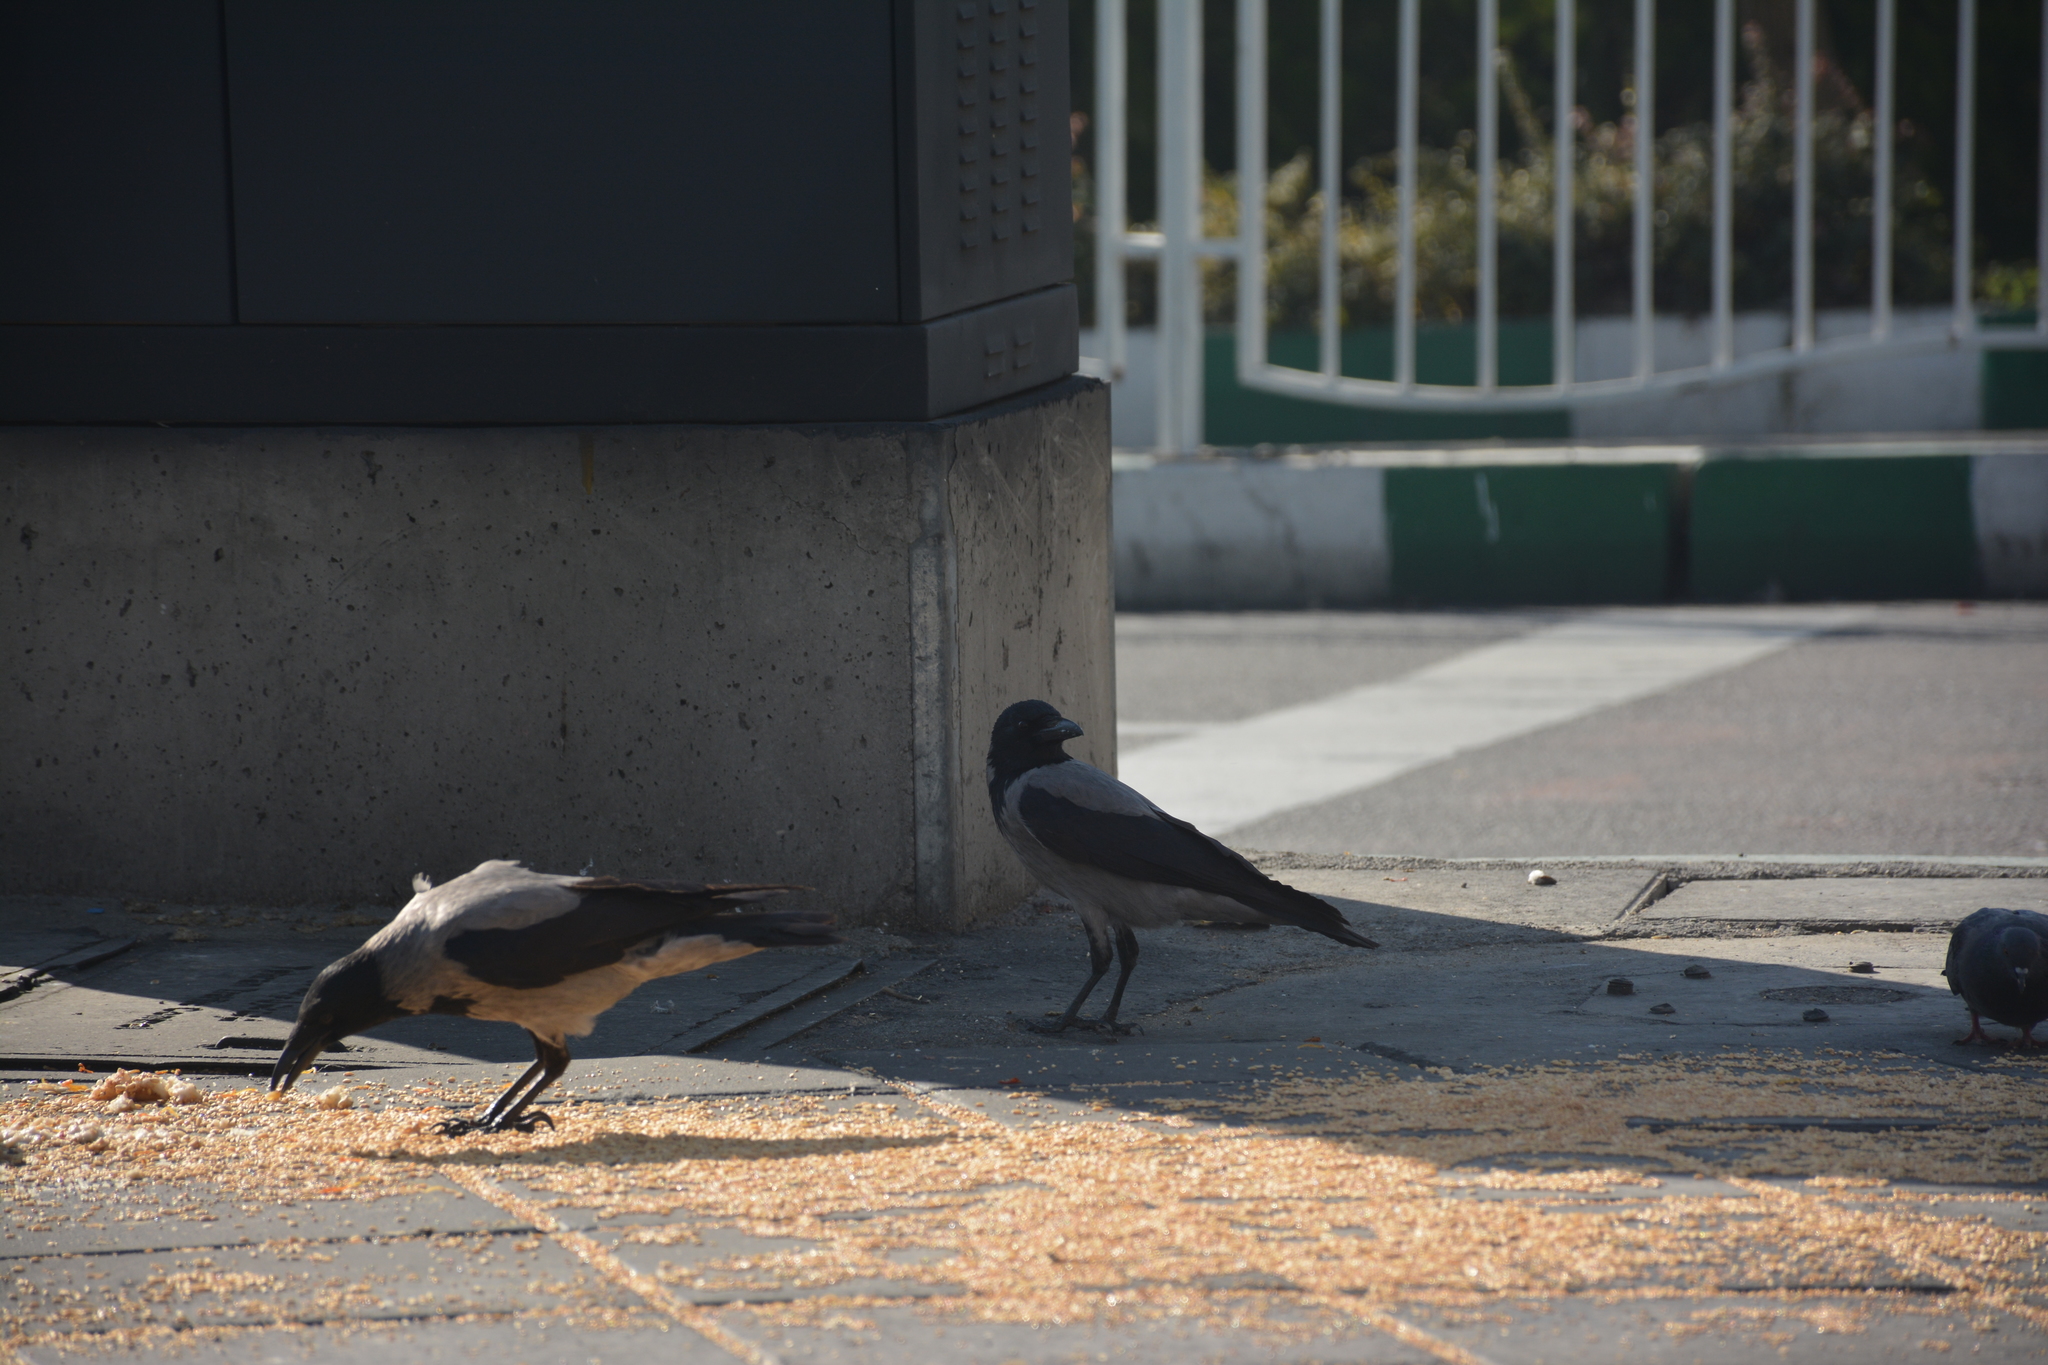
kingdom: Animalia
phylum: Chordata
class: Aves
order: Passeriformes
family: Corvidae
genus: Corvus
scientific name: Corvus cornix
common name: Hooded crow
